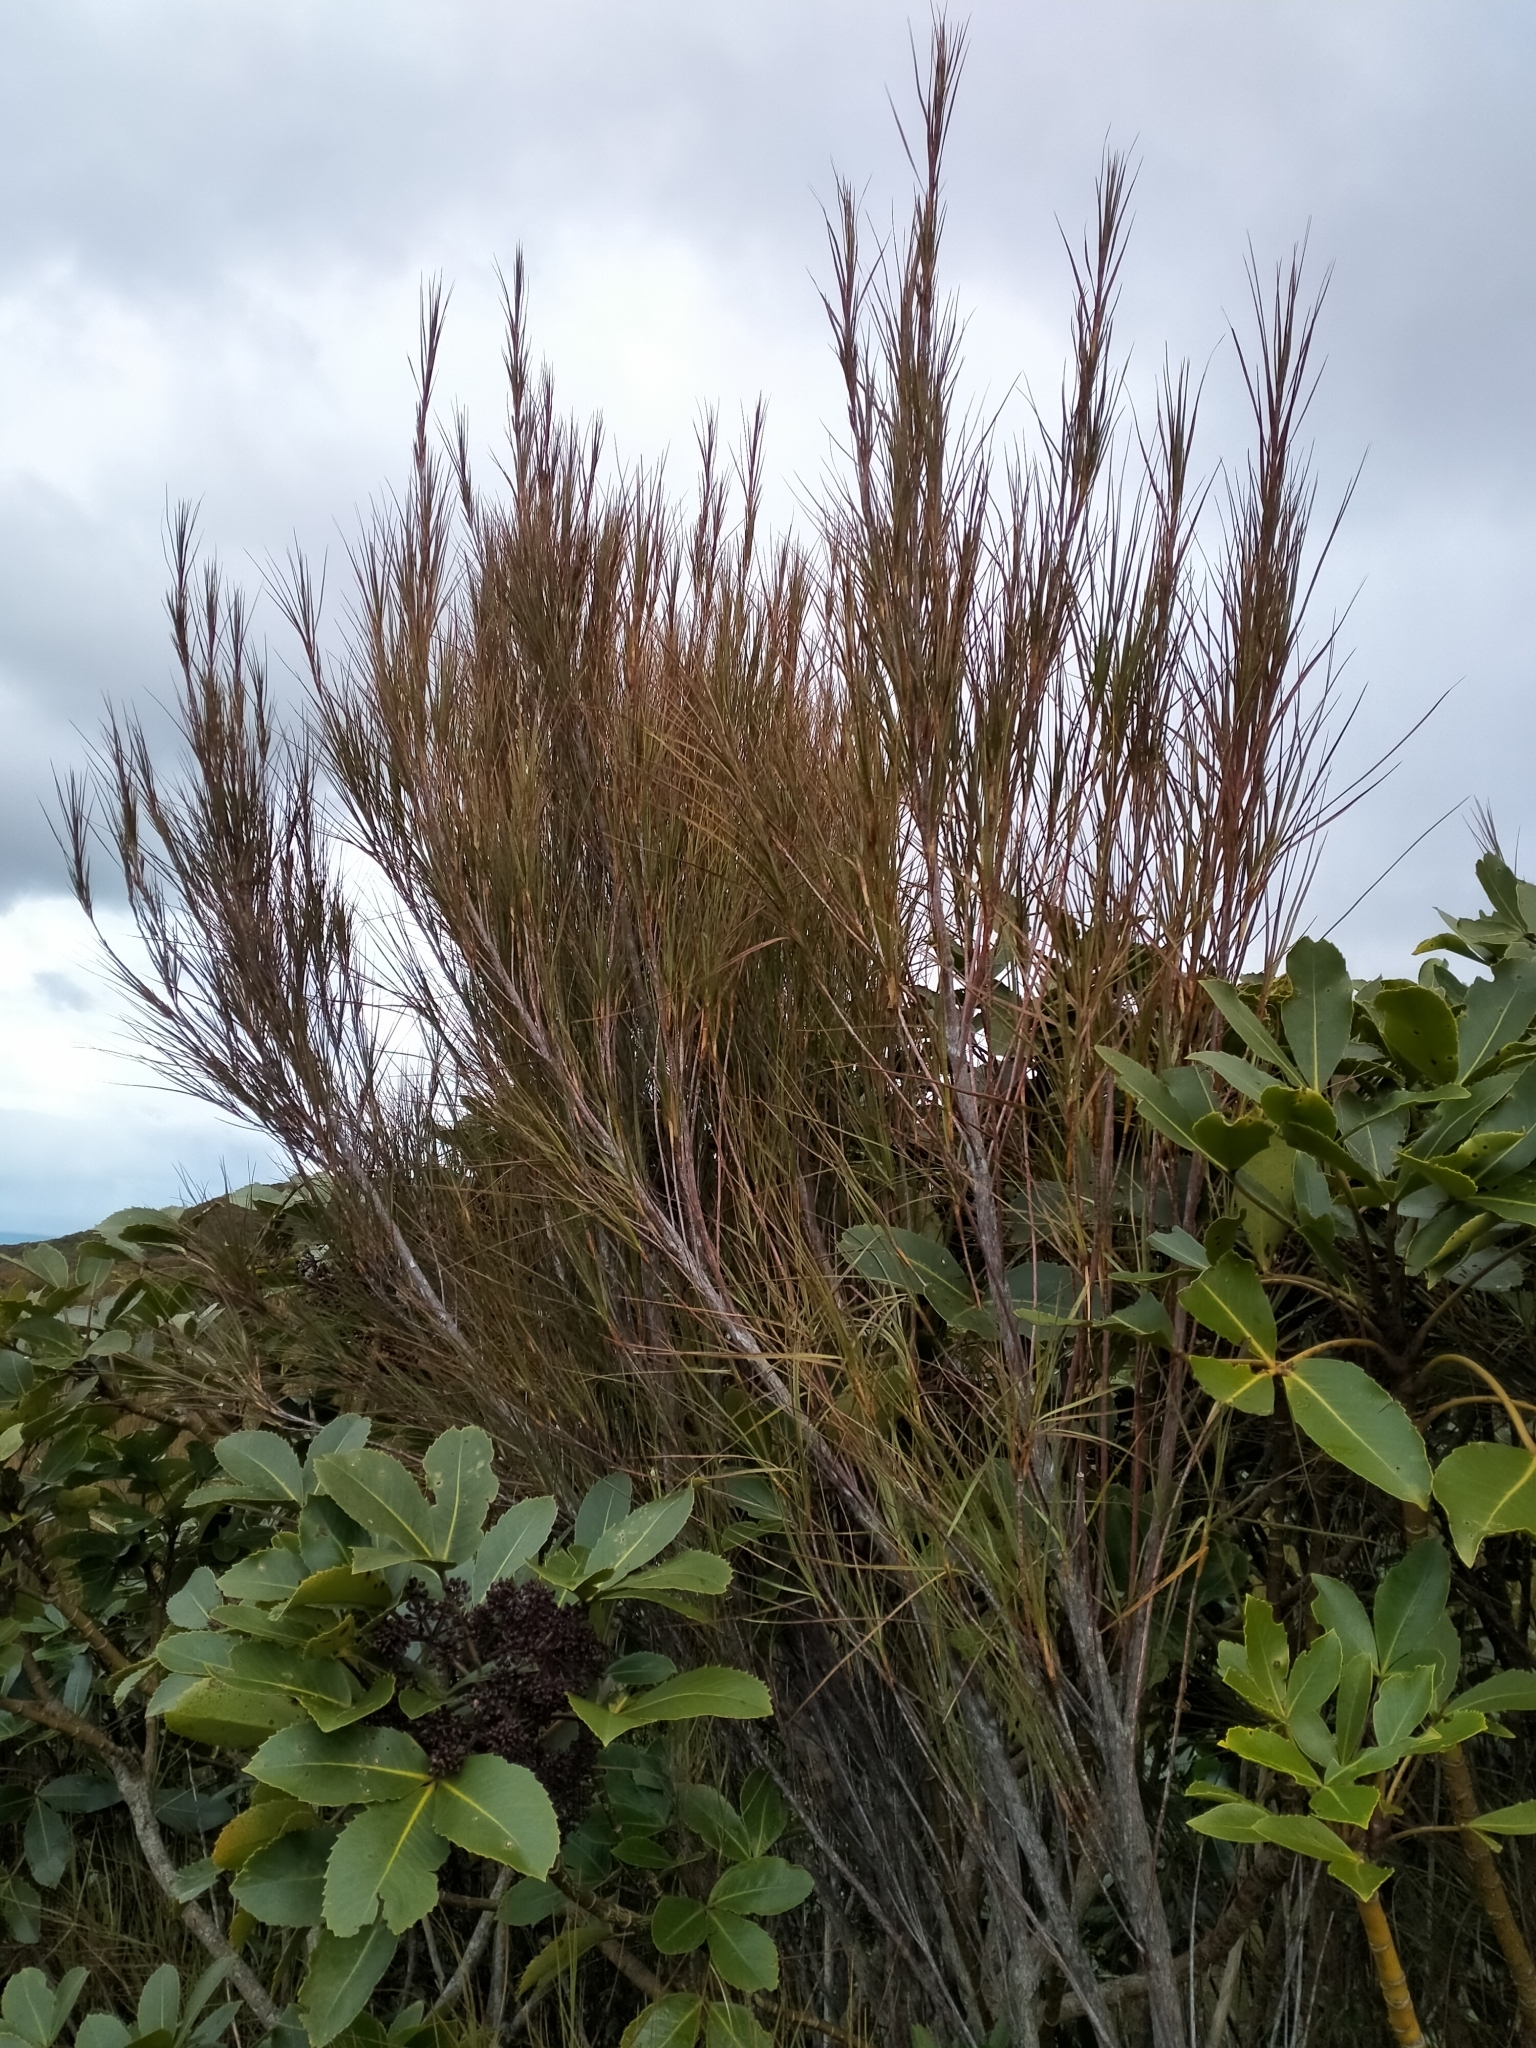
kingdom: Plantae
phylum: Tracheophyta
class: Magnoliopsida
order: Ericales
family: Ericaceae
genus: Dracophyllum
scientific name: Dracophyllum longifolium
